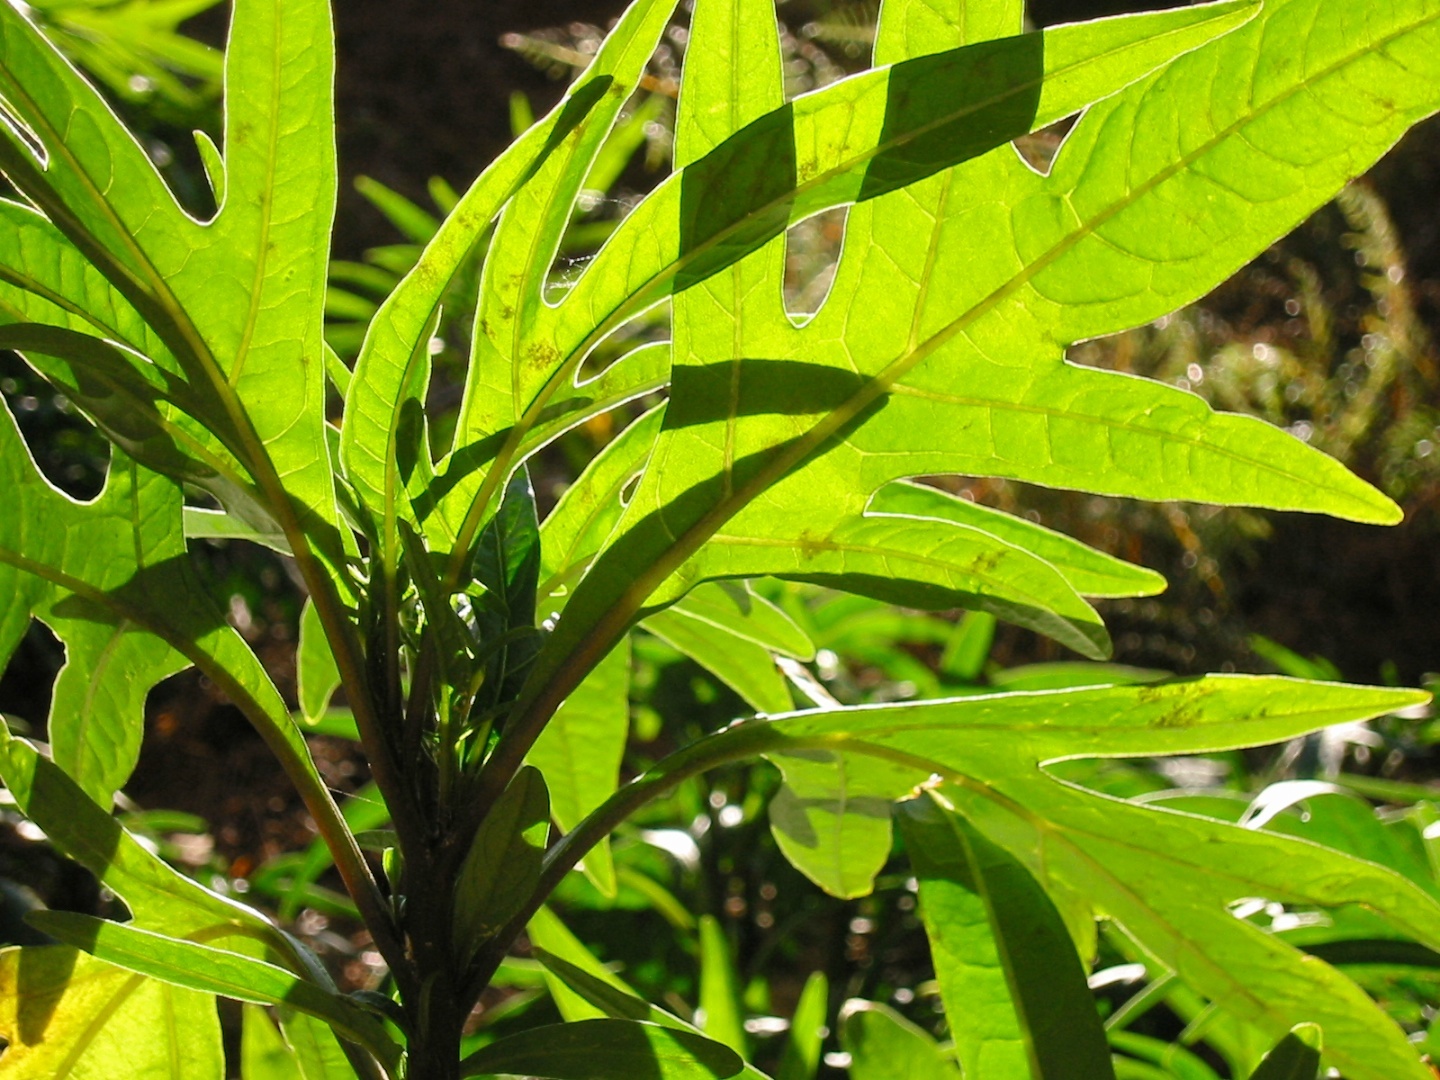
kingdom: Plantae
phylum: Tracheophyta
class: Magnoliopsida
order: Solanales
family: Solanaceae
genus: Solanum
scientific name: Solanum laciniatum
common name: Kangaroo-apple
